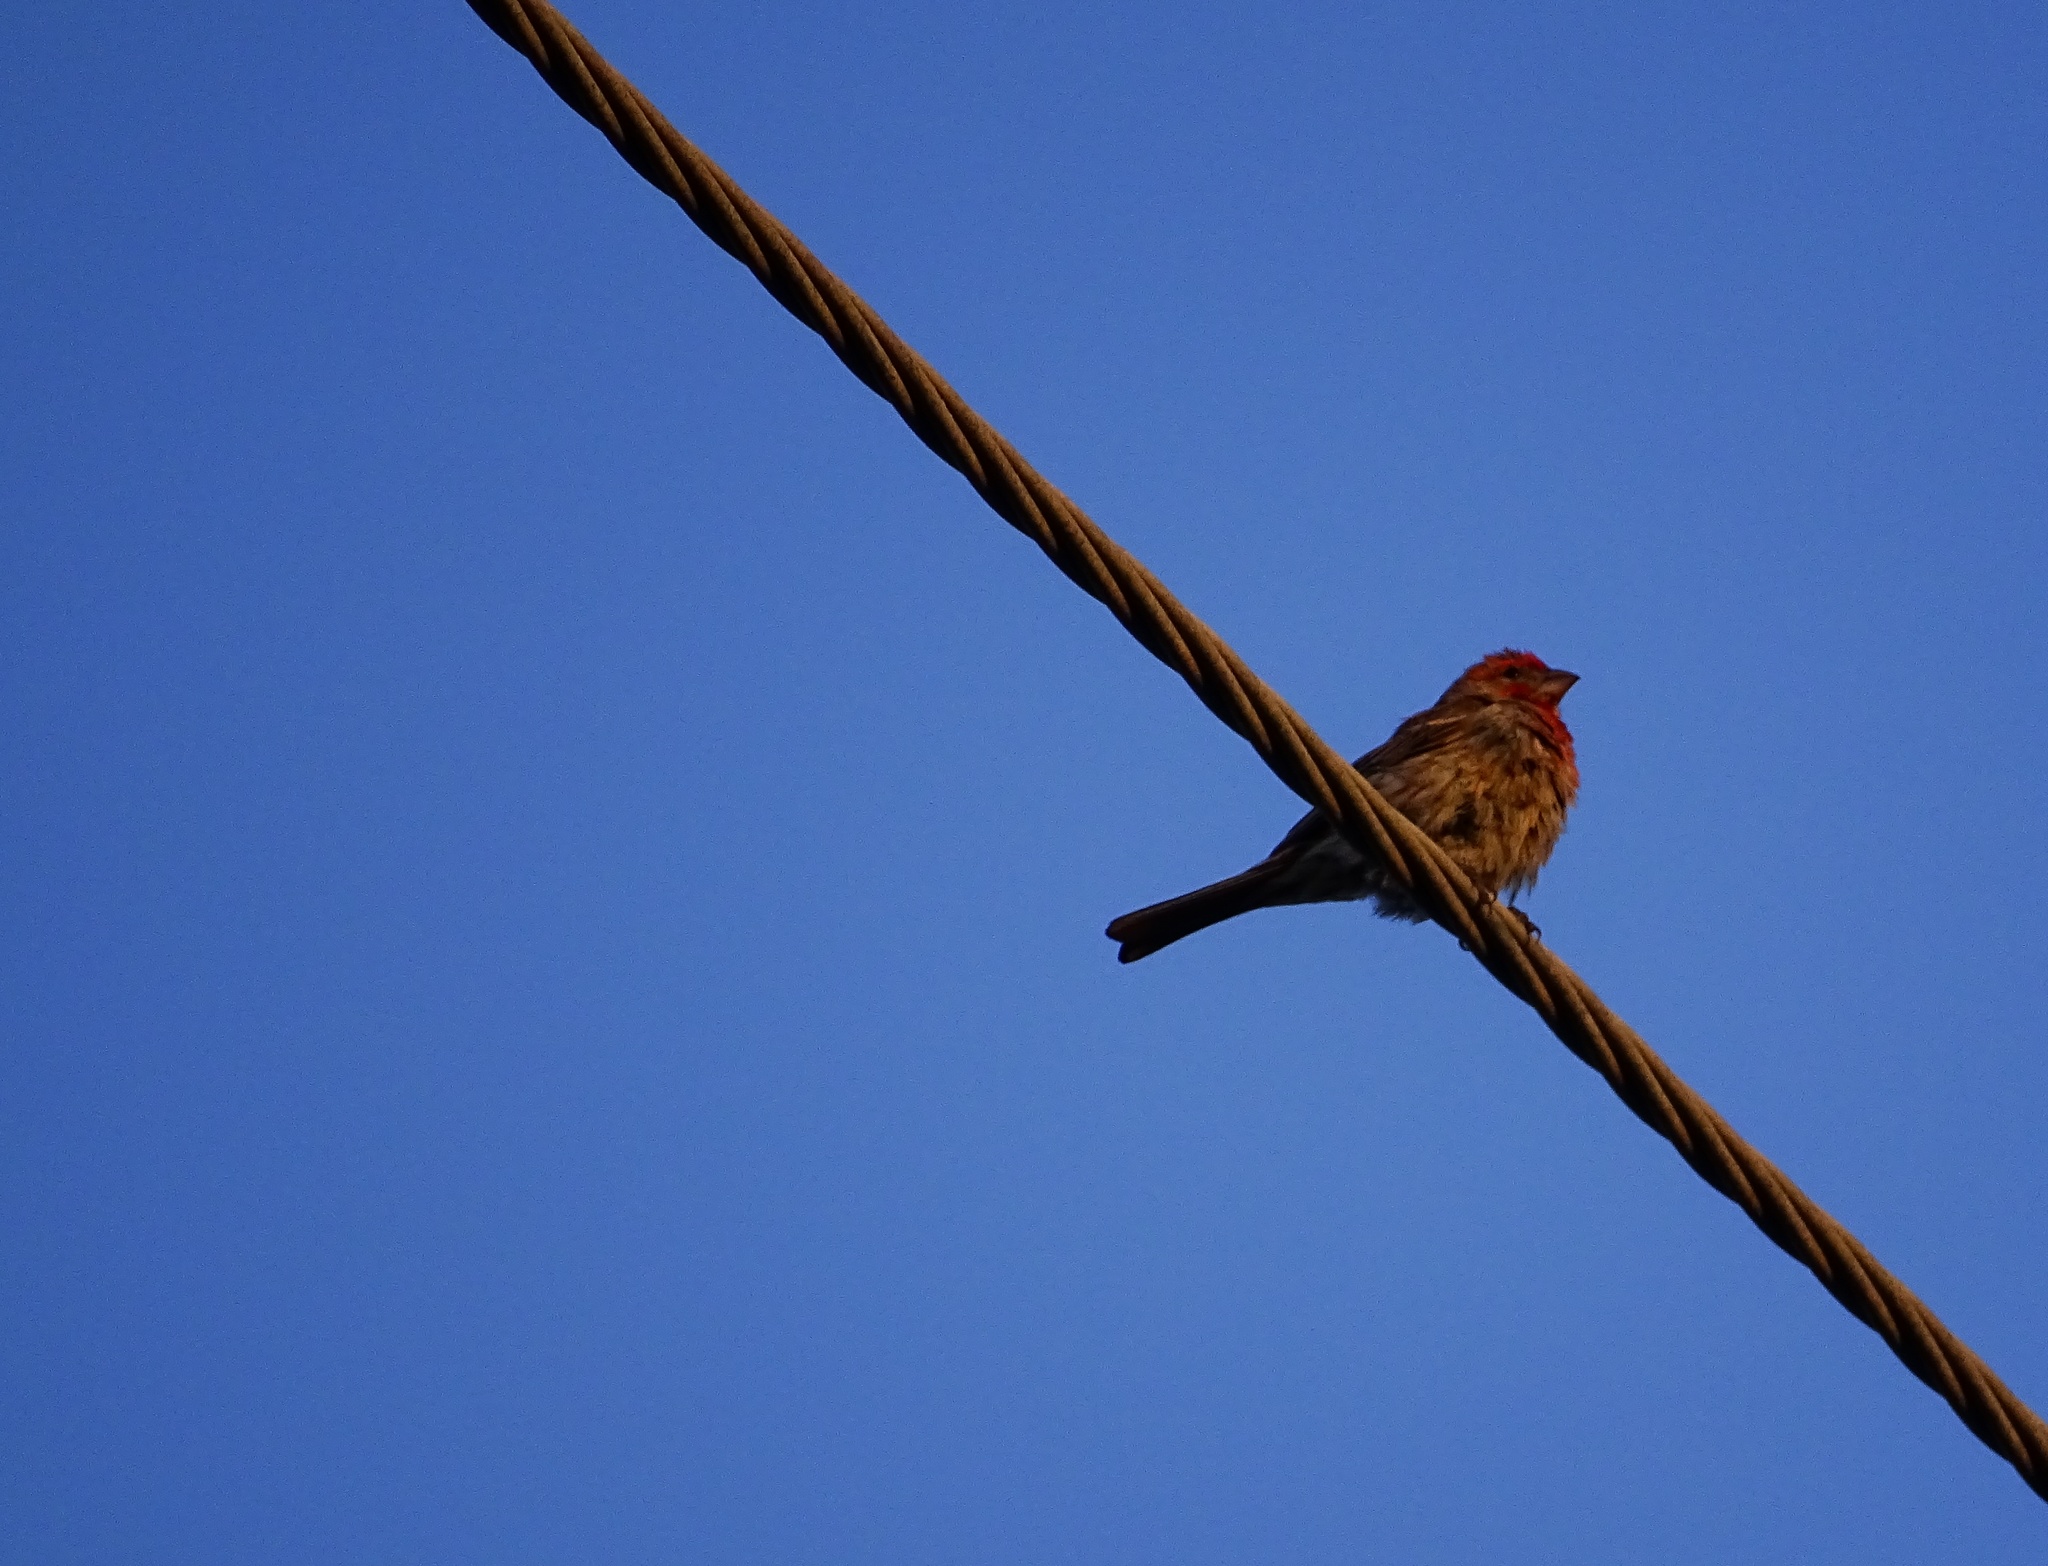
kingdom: Animalia
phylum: Chordata
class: Aves
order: Passeriformes
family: Fringillidae
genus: Haemorhous
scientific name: Haemorhous mexicanus
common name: House finch
